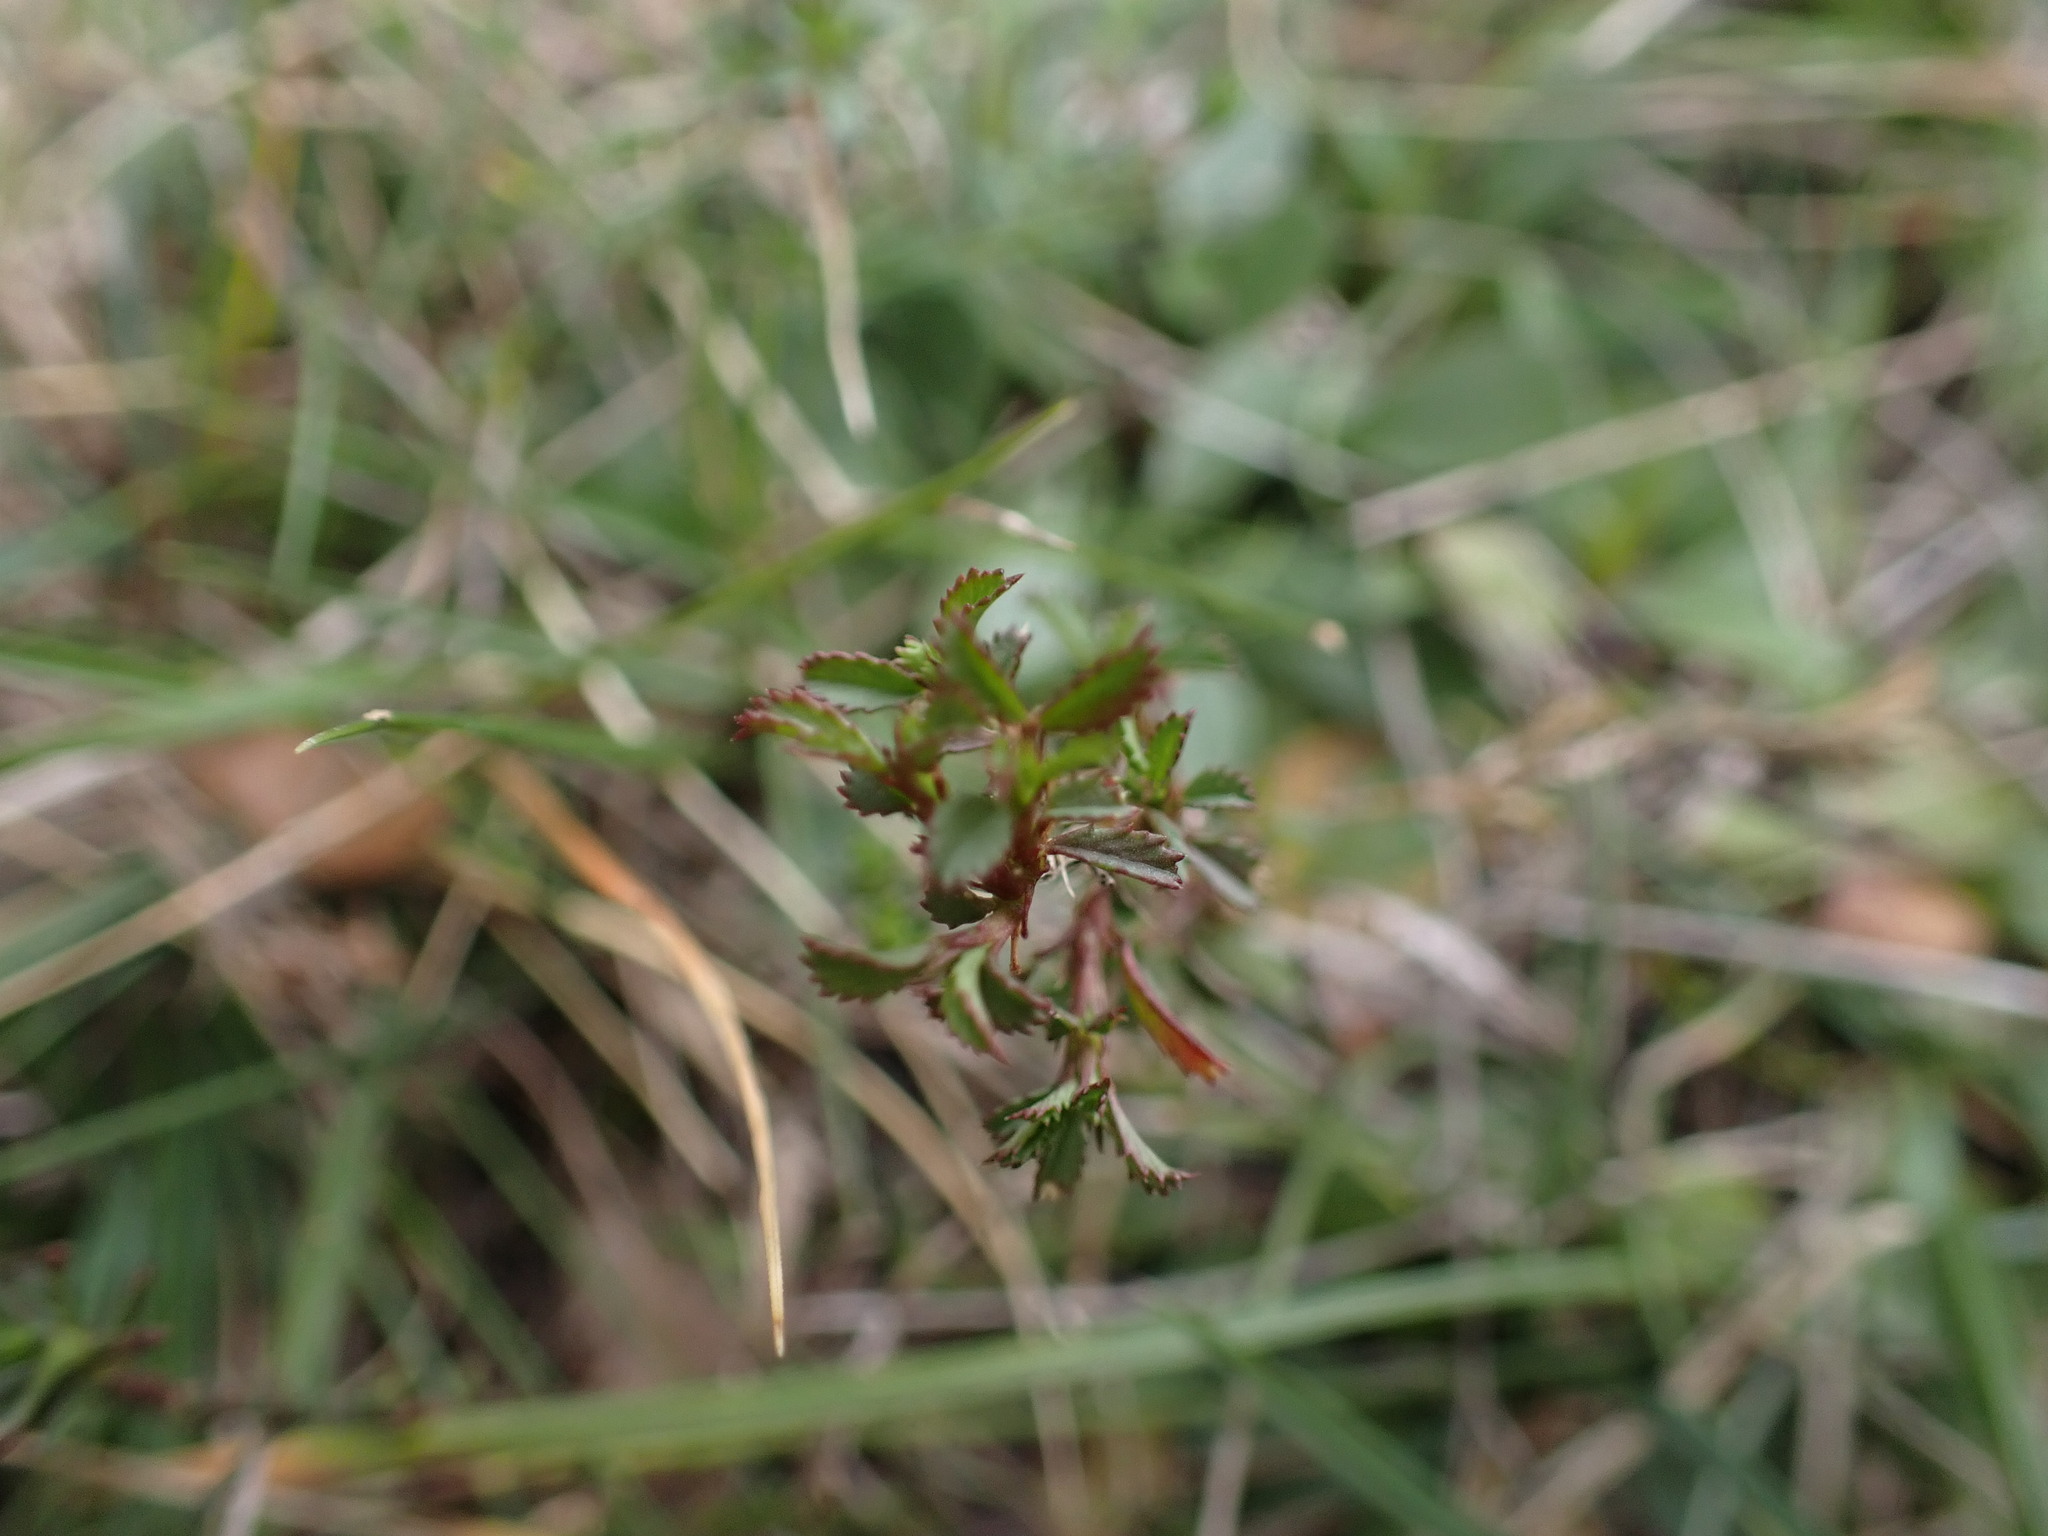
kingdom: Plantae
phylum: Tracheophyta
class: Magnoliopsida
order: Fabales
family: Fabaceae
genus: Ononis
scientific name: Ononis minutissima
